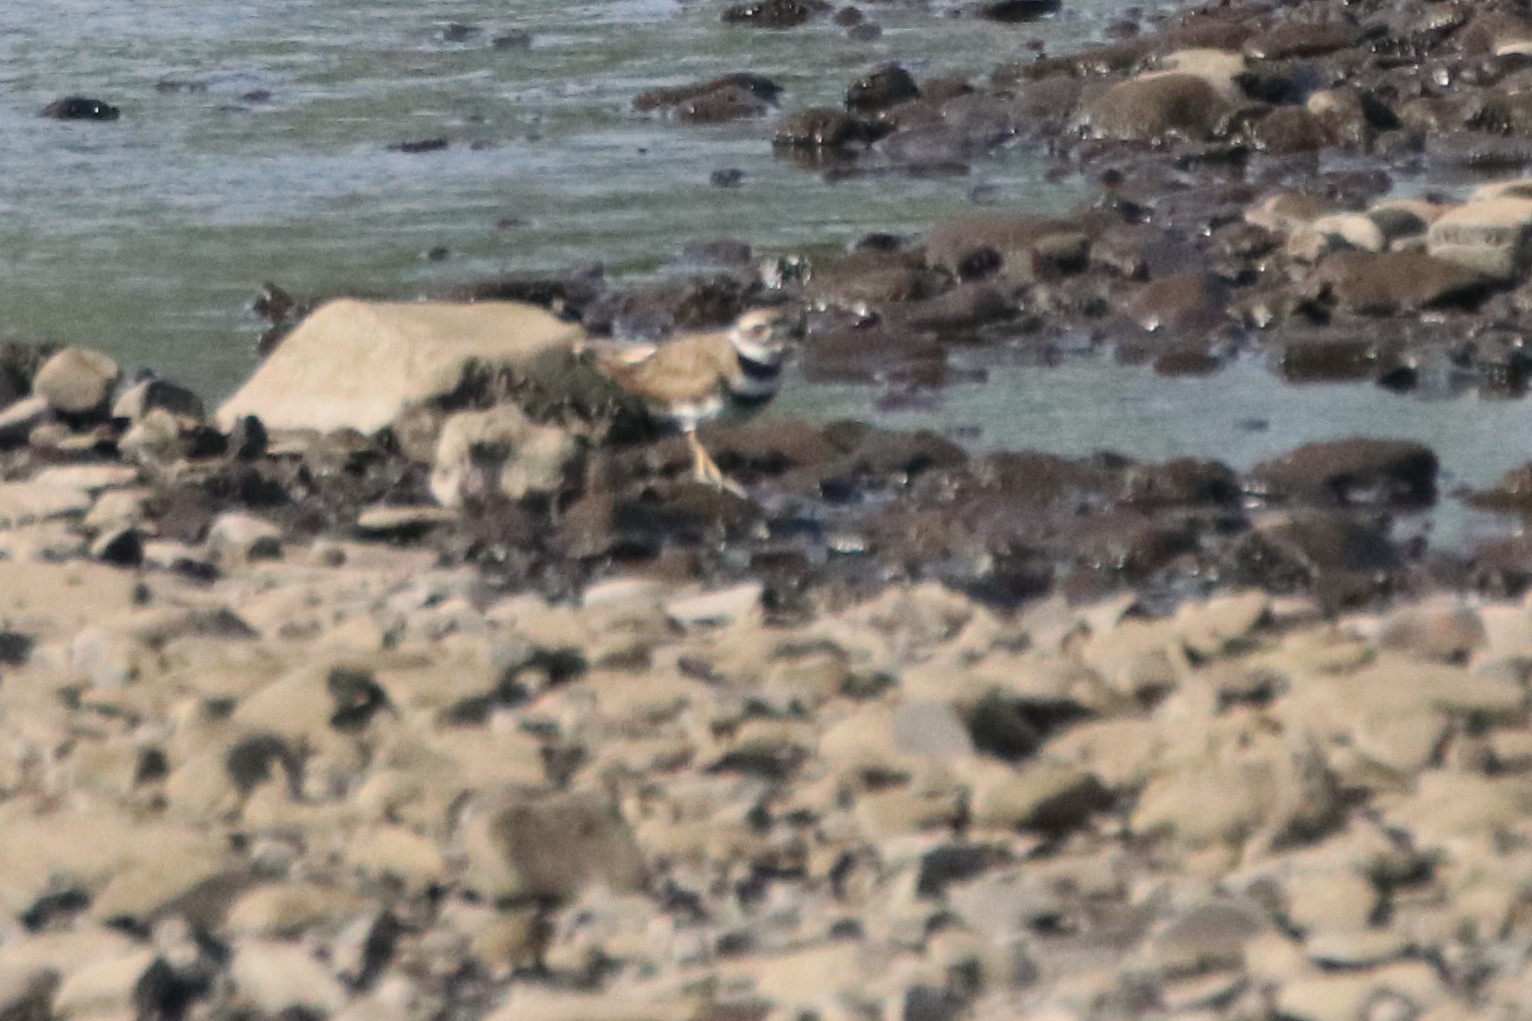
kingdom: Animalia
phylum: Chordata
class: Aves
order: Charadriiformes
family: Charadriidae
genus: Charadrius
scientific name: Charadrius vociferus
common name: Killdeer
